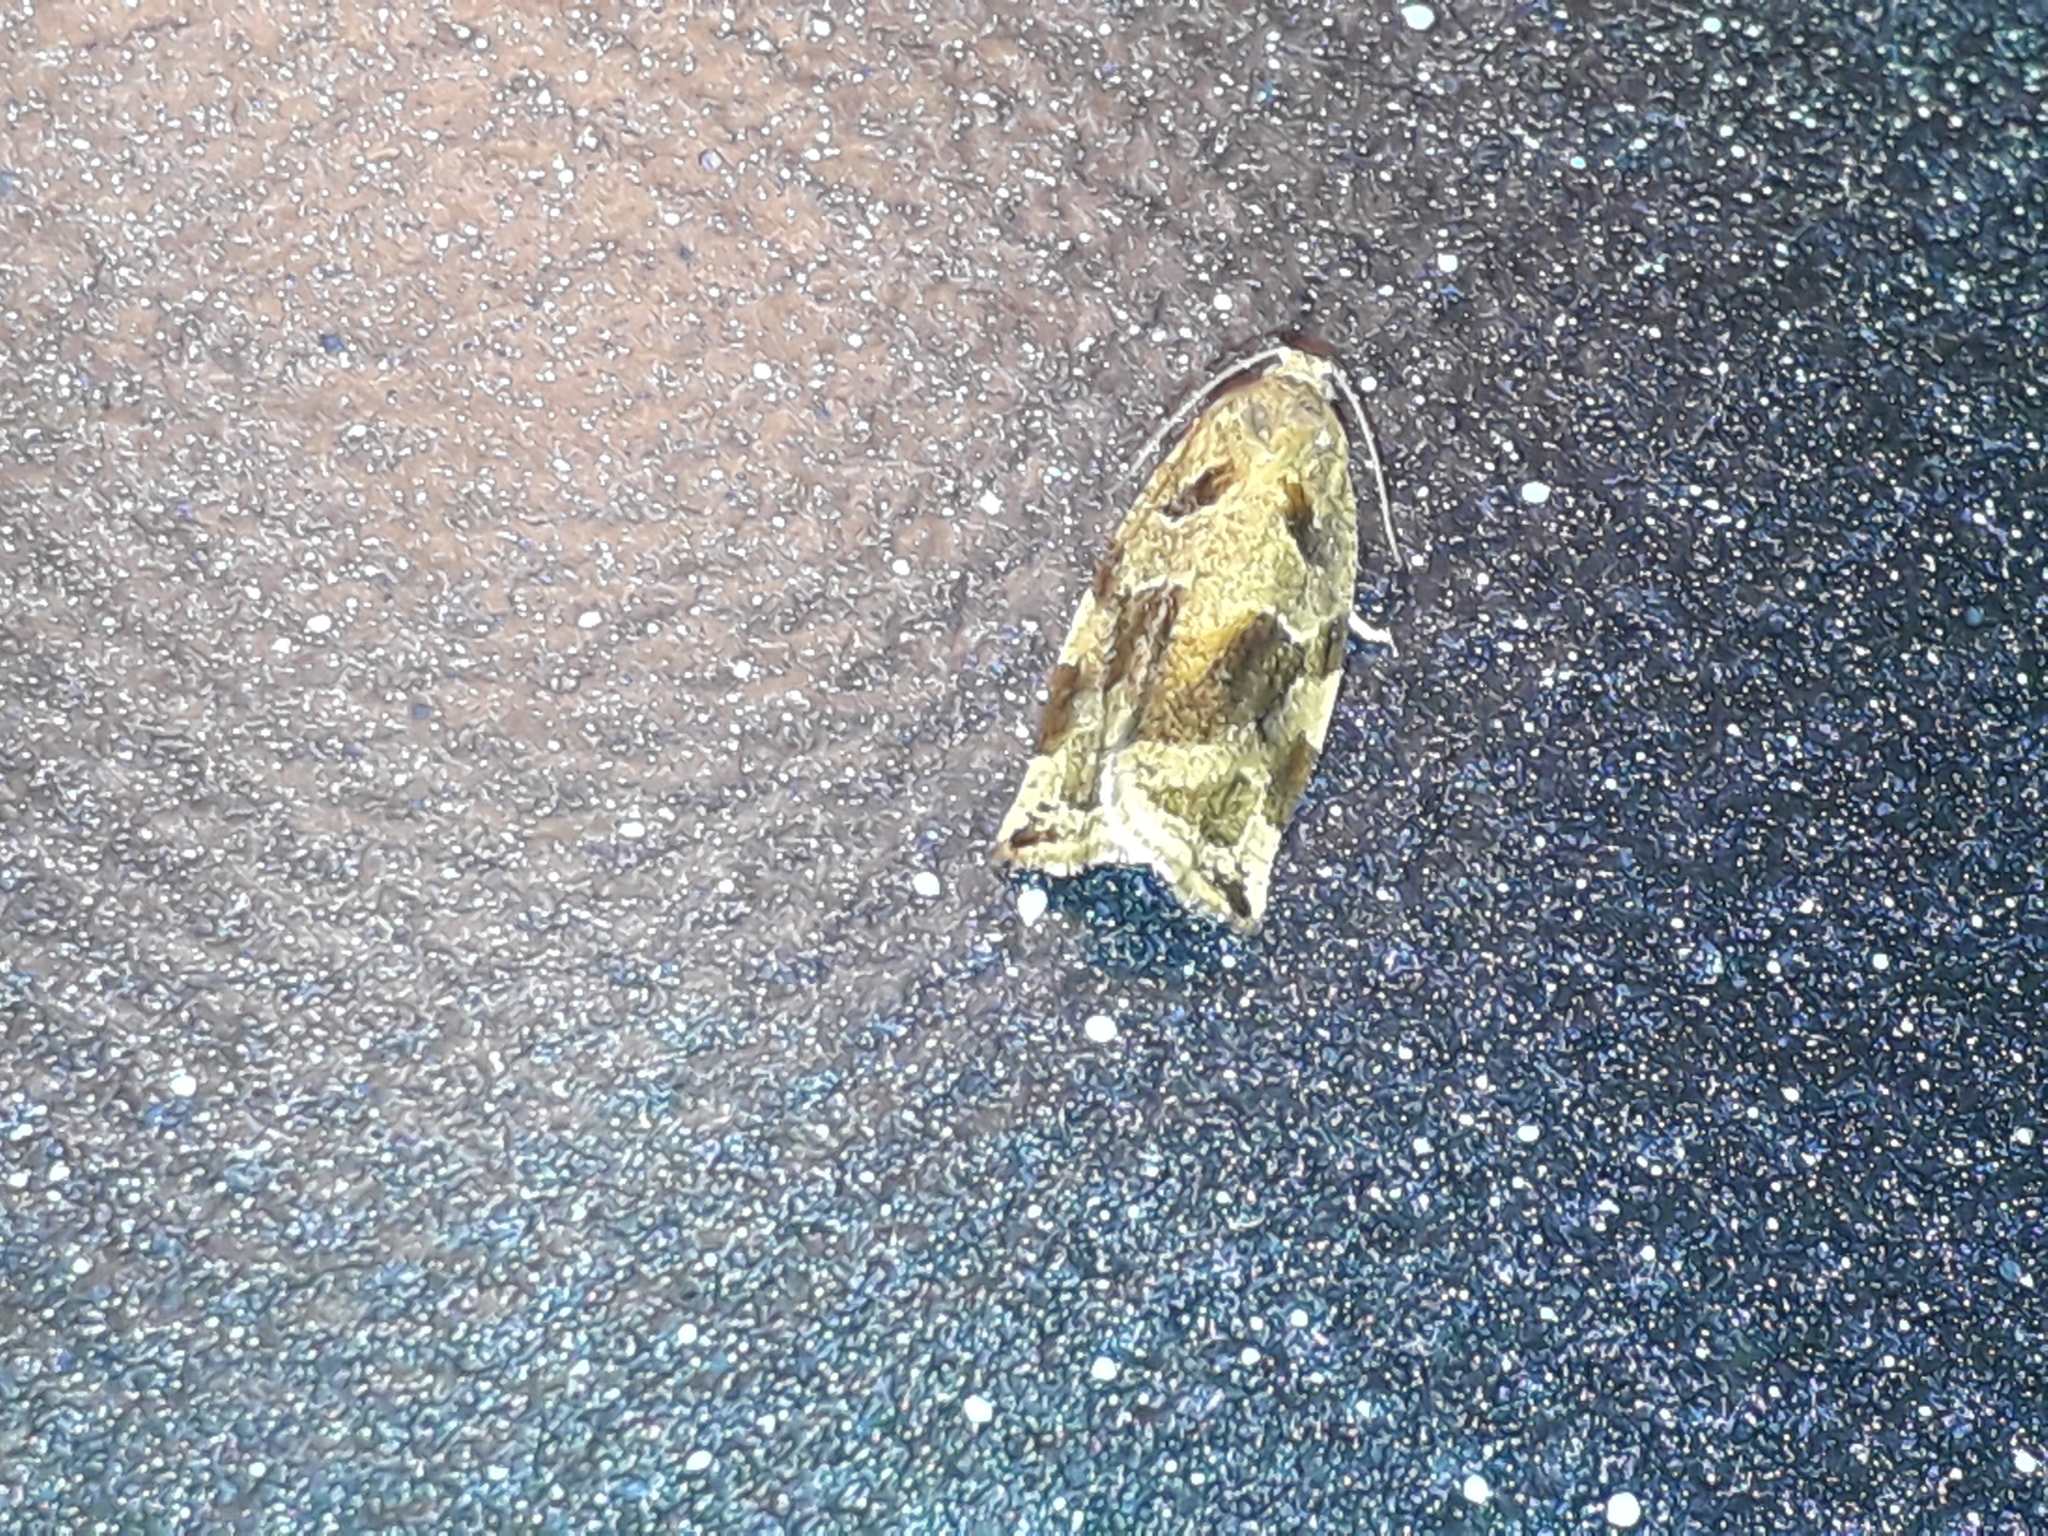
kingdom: Animalia
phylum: Arthropoda
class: Insecta
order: Lepidoptera
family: Tortricidae
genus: Archips
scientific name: Archips xylosteana
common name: Variegated golden tortrix
